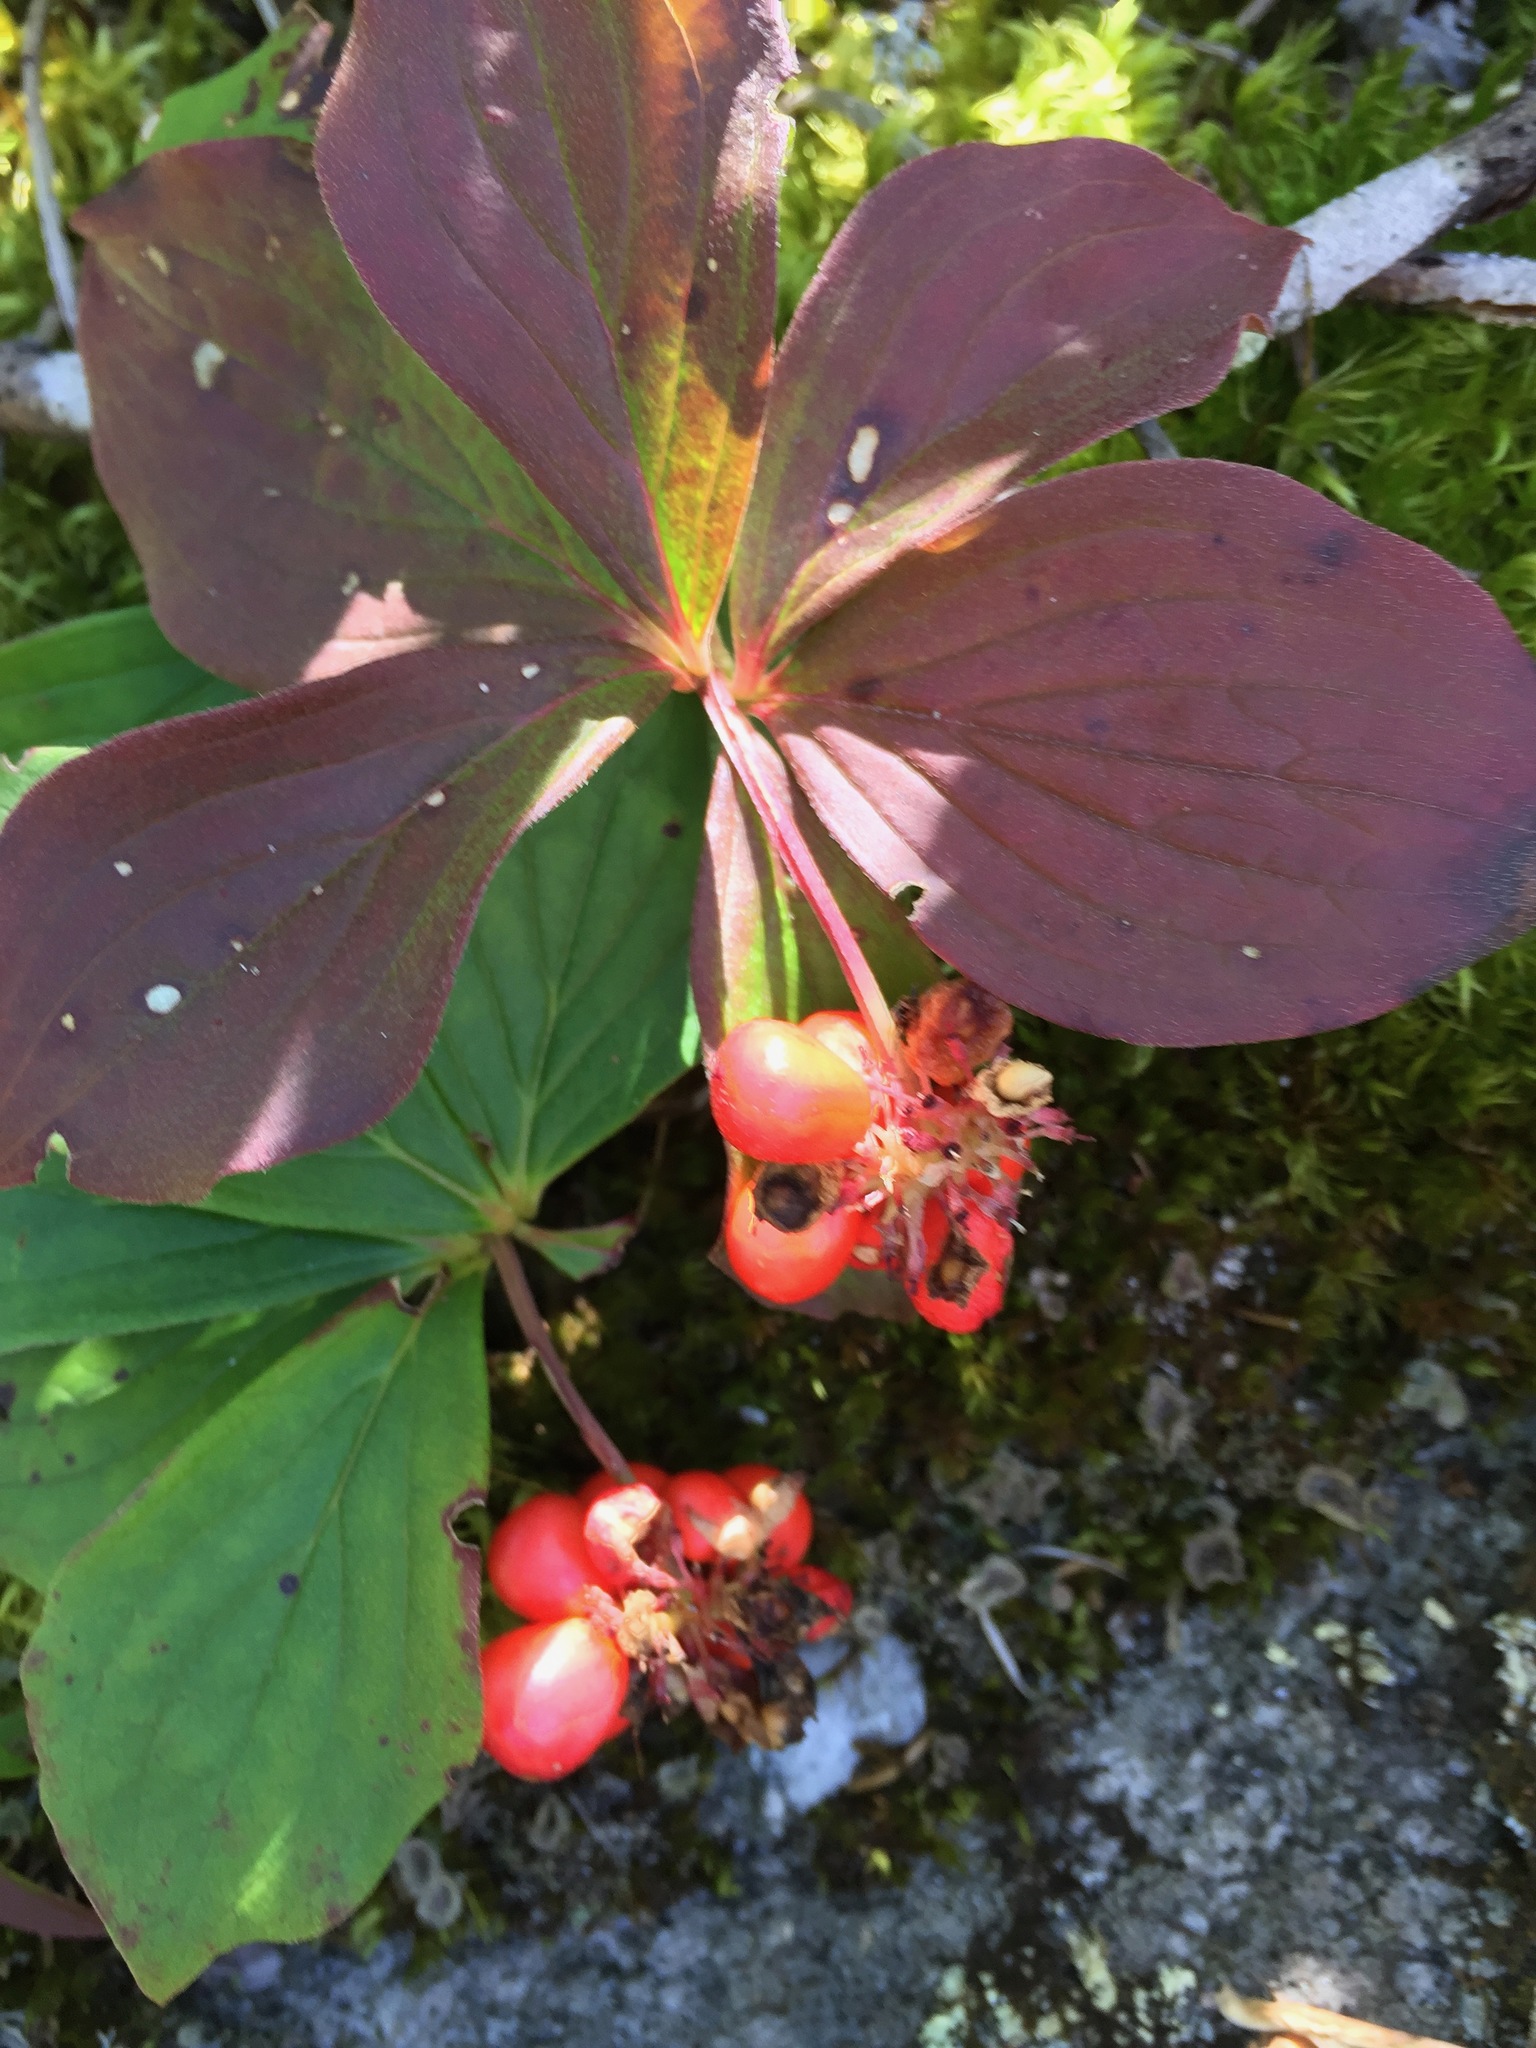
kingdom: Plantae
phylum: Tracheophyta
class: Magnoliopsida
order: Cornales
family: Cornaceae
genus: Cornus
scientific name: Cornus canadensis
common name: Creeping dogwood
